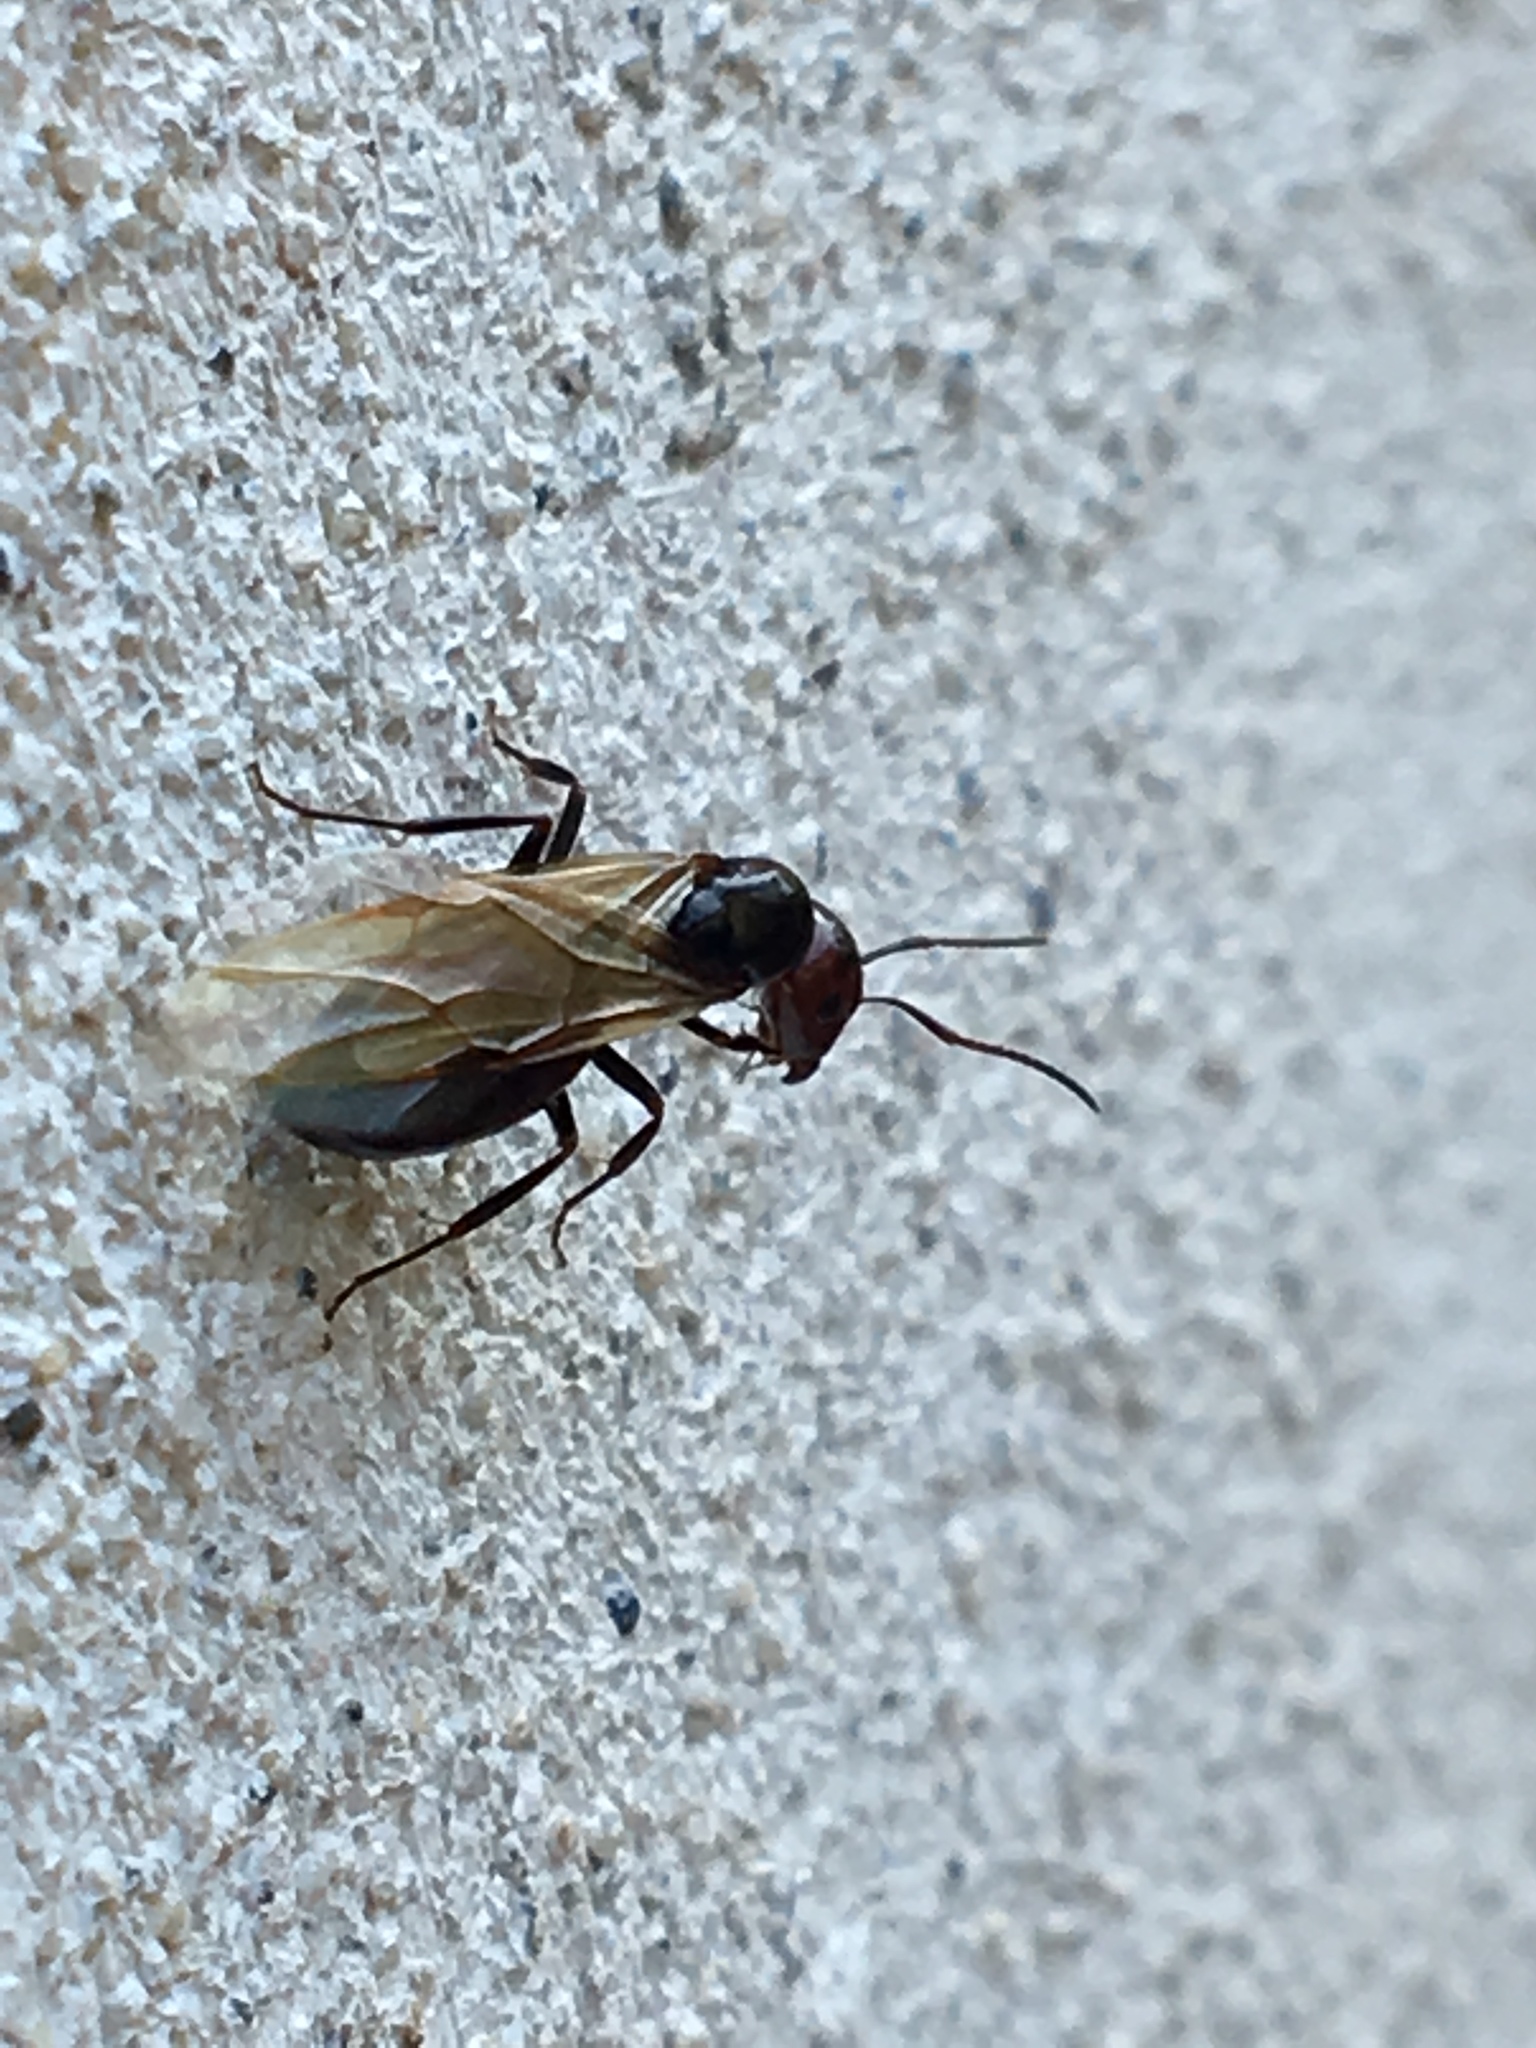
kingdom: Animalia
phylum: Arthropoda
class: Insecta
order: Hymenoptera
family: Formicidae
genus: Camponotus
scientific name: Camponotus lateralis
